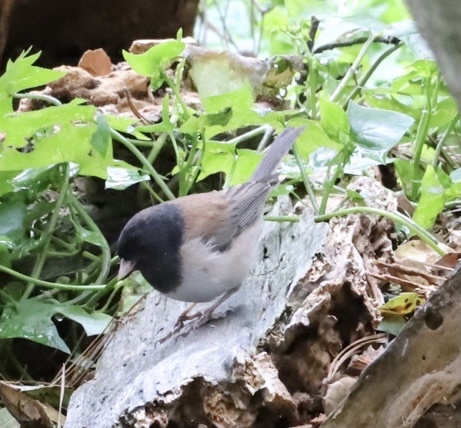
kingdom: Animalia
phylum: Chordata
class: Aves
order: Passeriformes
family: Passerellidae
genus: Junco
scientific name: Junco hyemalis
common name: Dark-eyed junco
